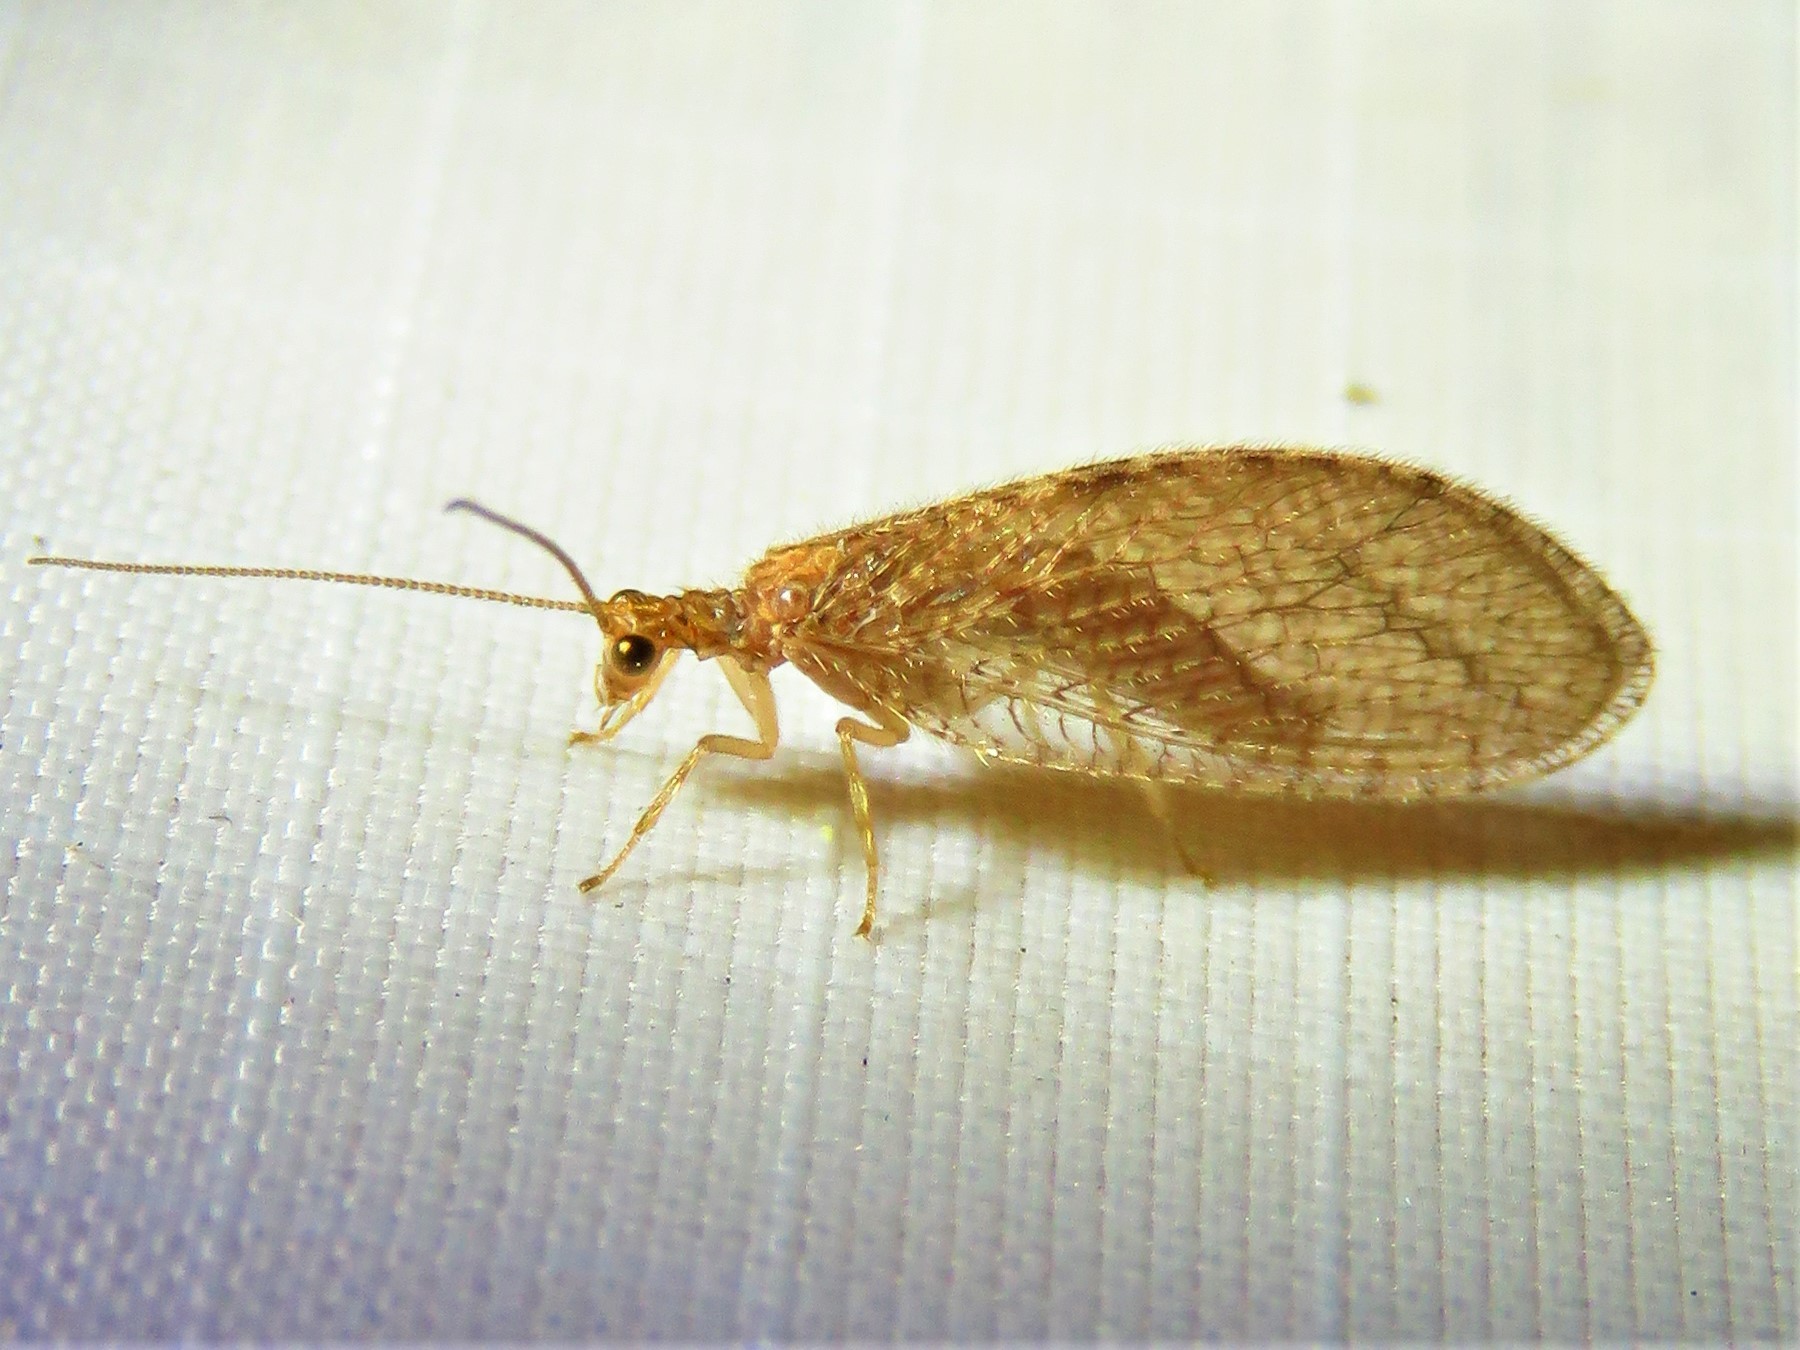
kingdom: Animalia
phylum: Arthropoda
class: Insecta
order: Neuroptera
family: Hemerobiidae
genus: Micromus
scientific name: Micromus posticus
